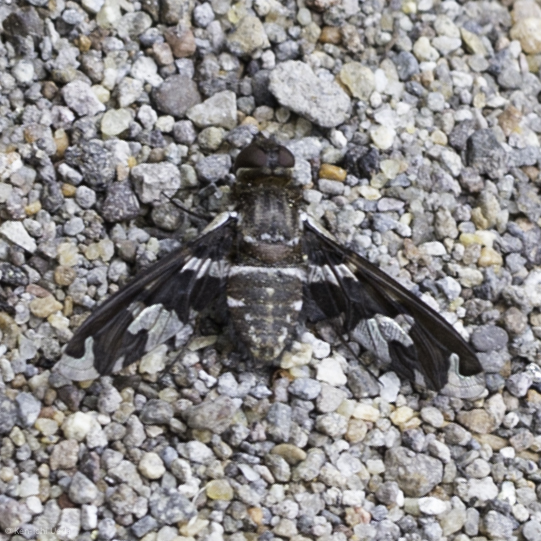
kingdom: Animalia
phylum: Arthropoda
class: Insecta
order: Diptera
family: Bombyliidae
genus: Exoprosopa
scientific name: Exoprosopa dorcadion
